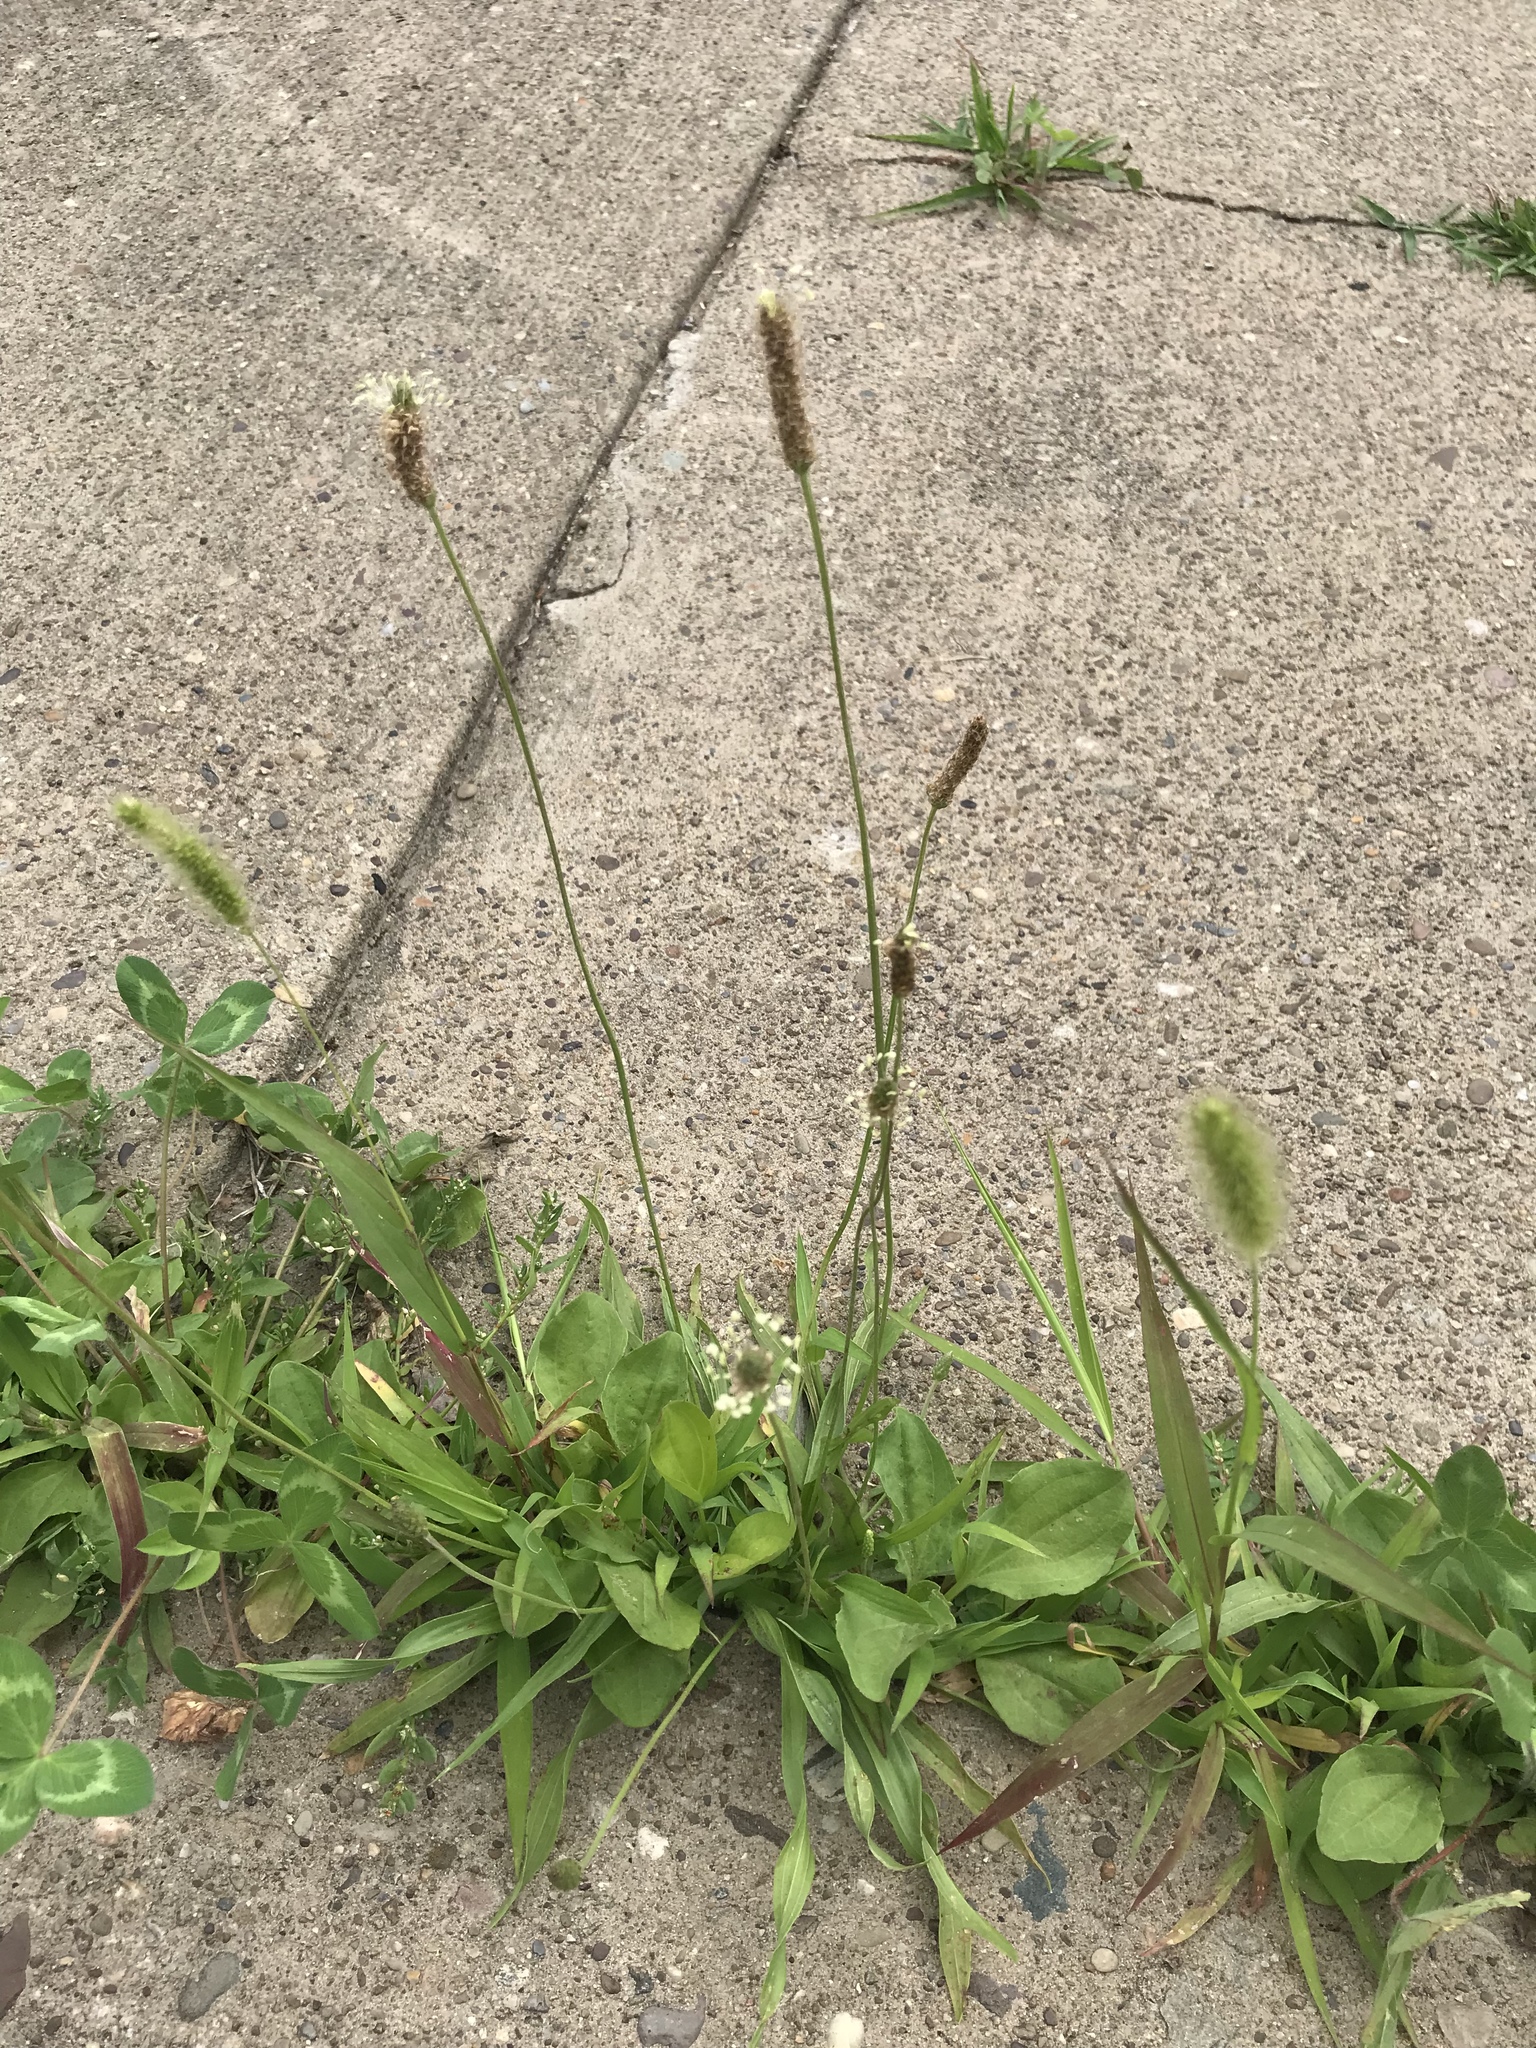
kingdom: Plantae
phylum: Tracheophyta
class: Magnoliopsida
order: Lamiales
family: Plantaginaceae
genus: Plantago
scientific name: Plantago lanceolata
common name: Ribwort plantain
